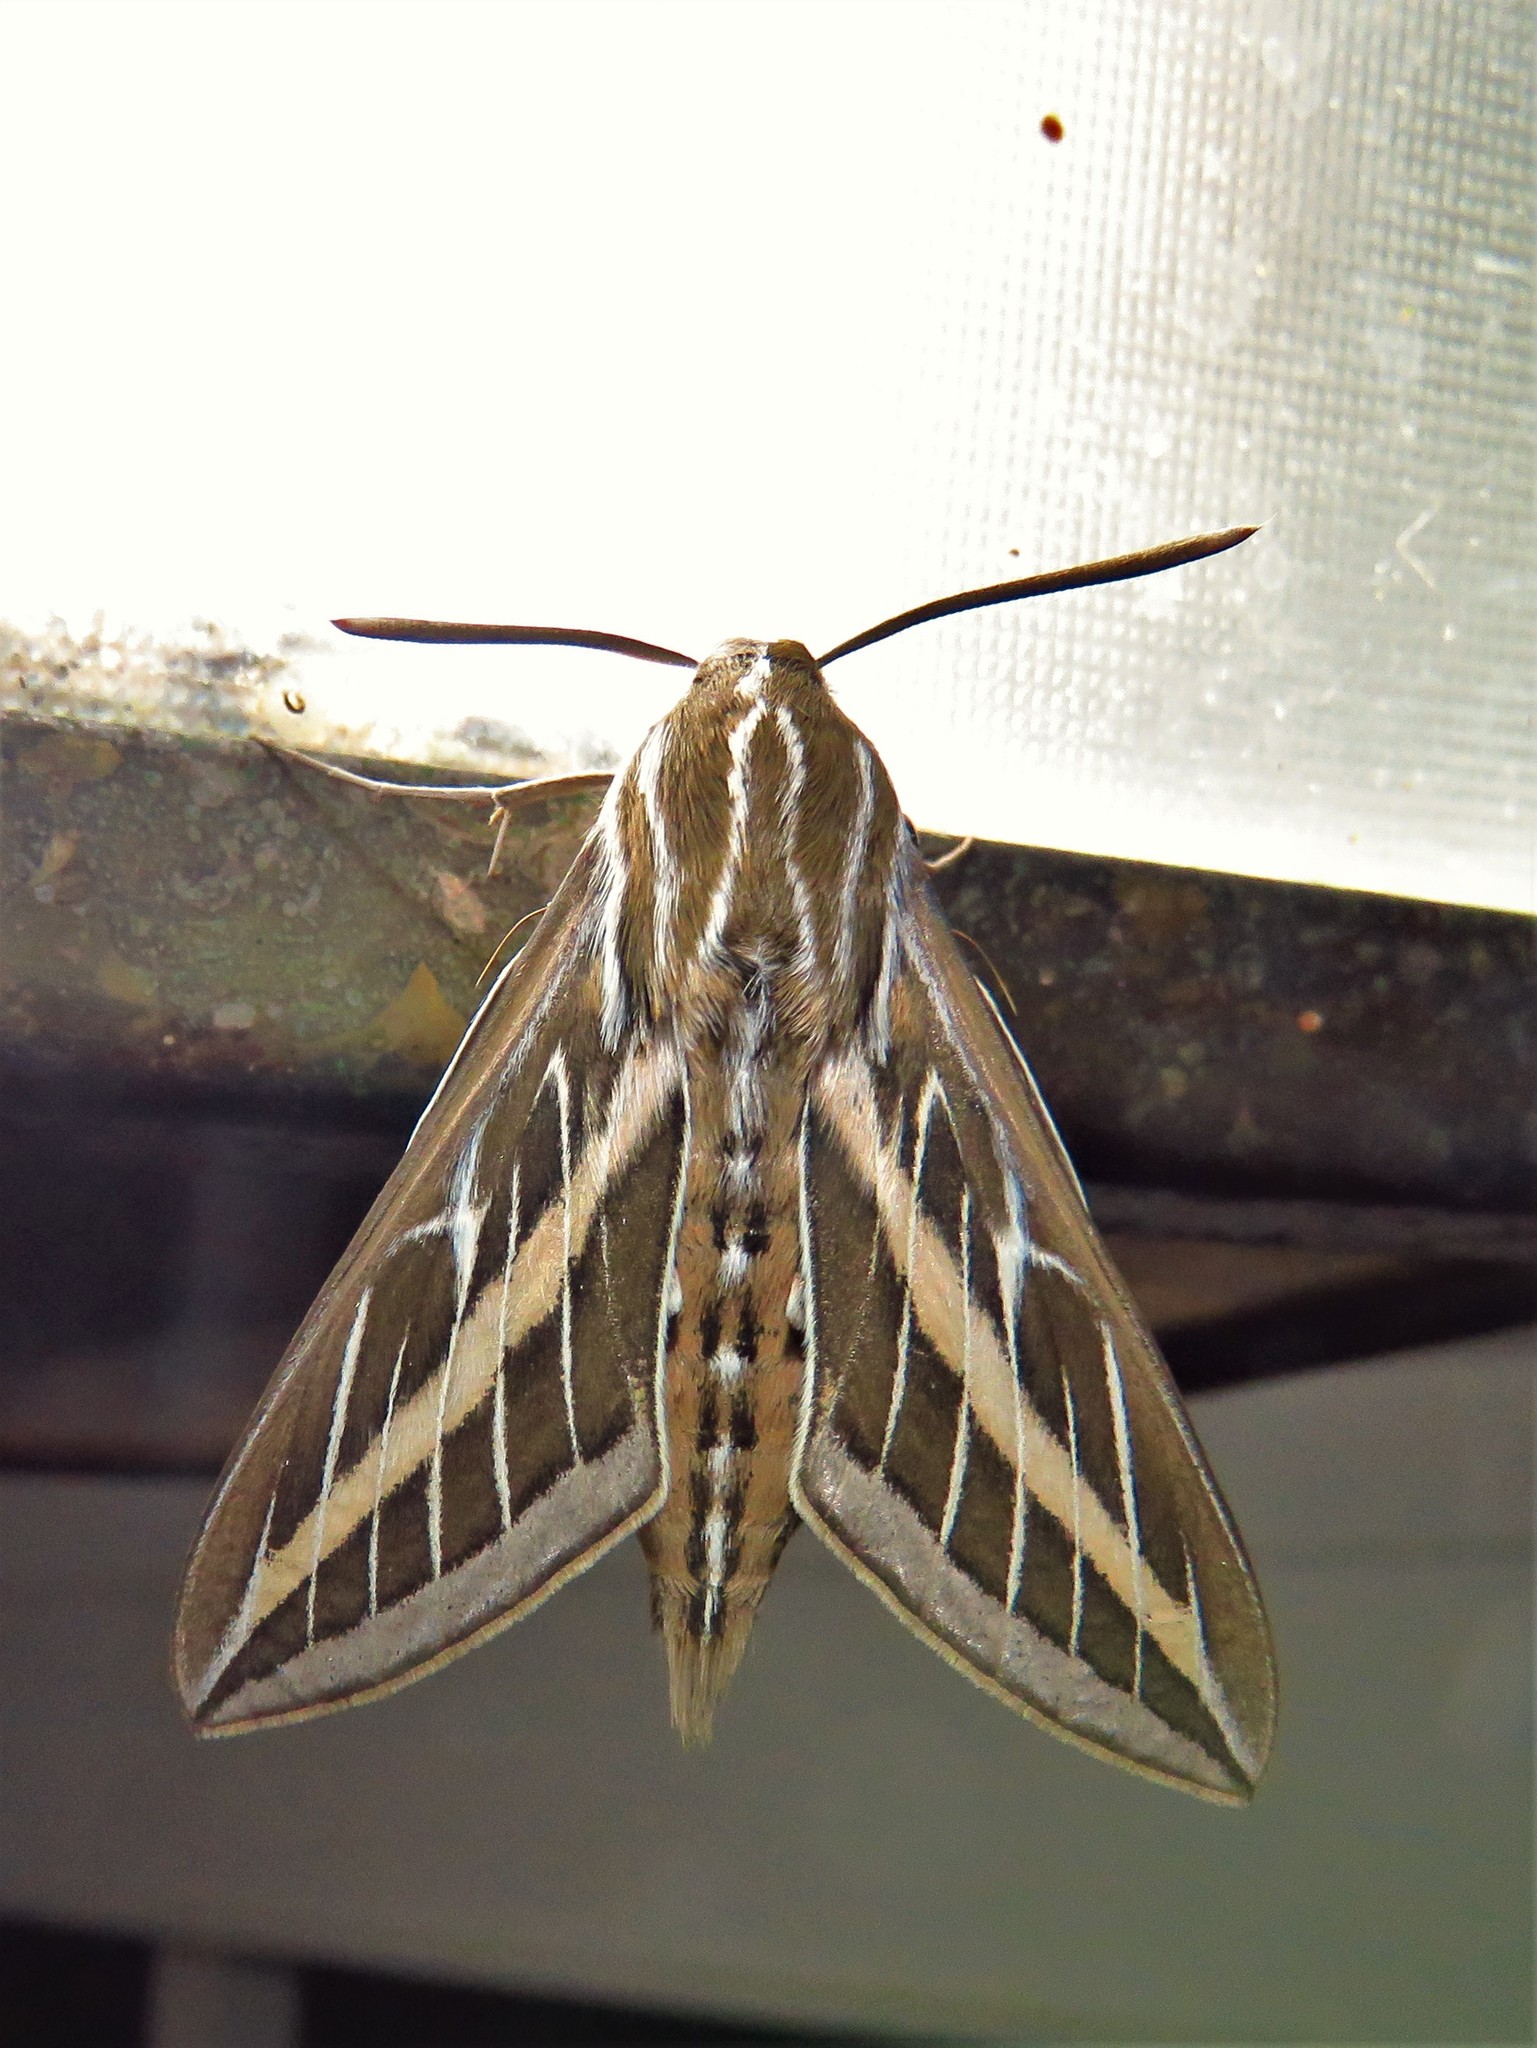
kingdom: Animalia
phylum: Arthropoda
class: Insecta
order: Lepidoptera
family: Sphingidae
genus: Hyles
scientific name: Hyles lineata
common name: White-lined sphinx
